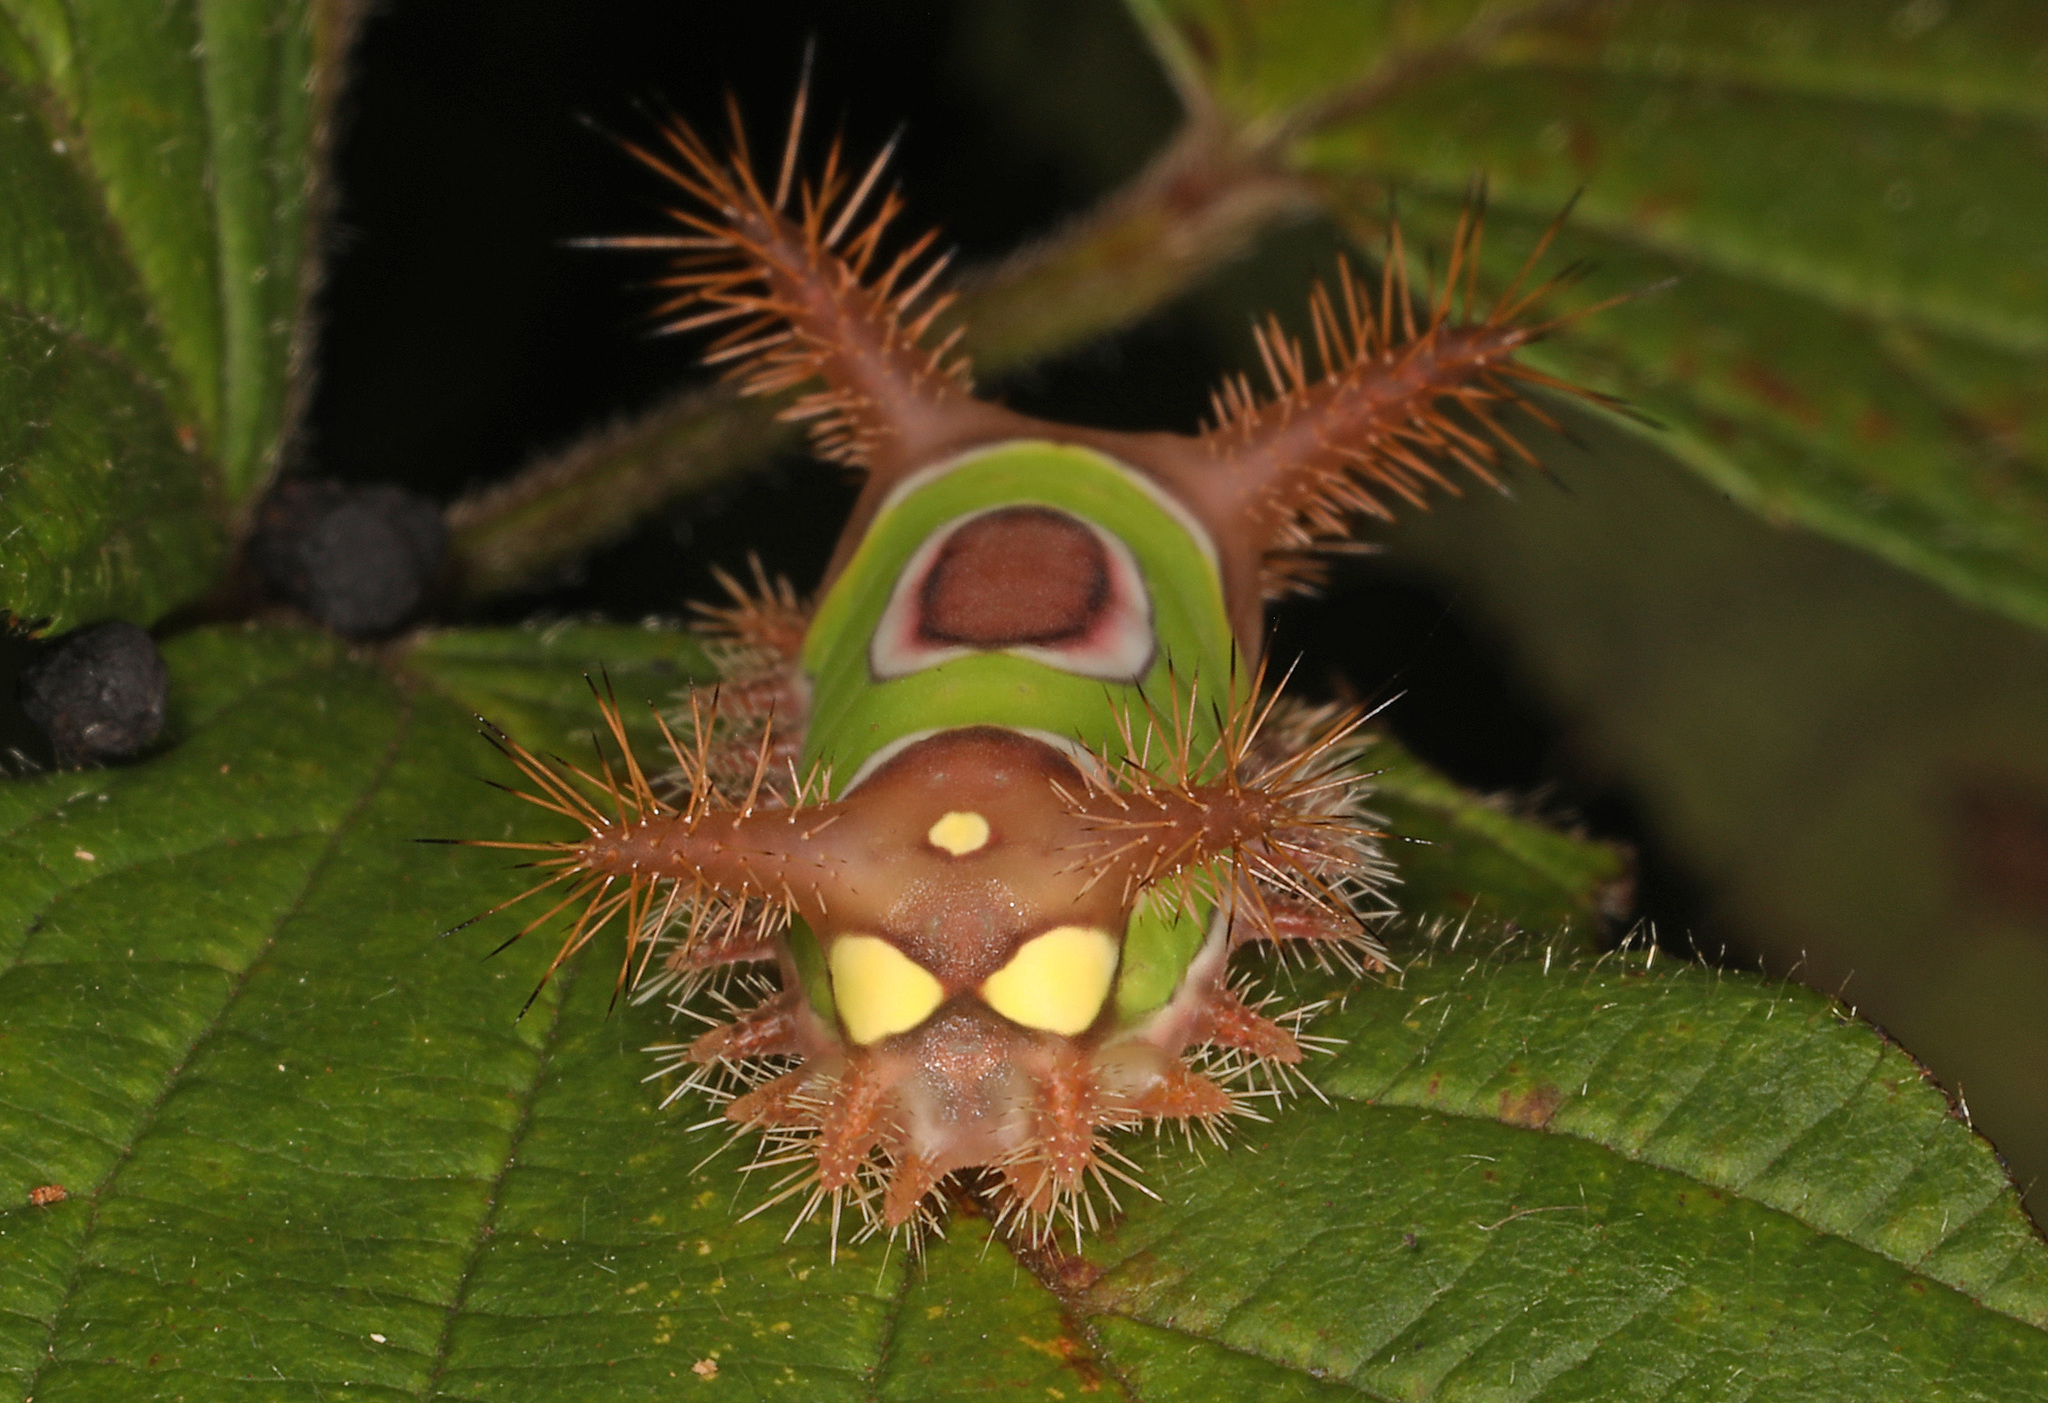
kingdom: Animalia
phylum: Arthropoda
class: Insecta
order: Lepidoptera
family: Limacodidae
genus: Acharia
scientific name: Acharia stimulea
